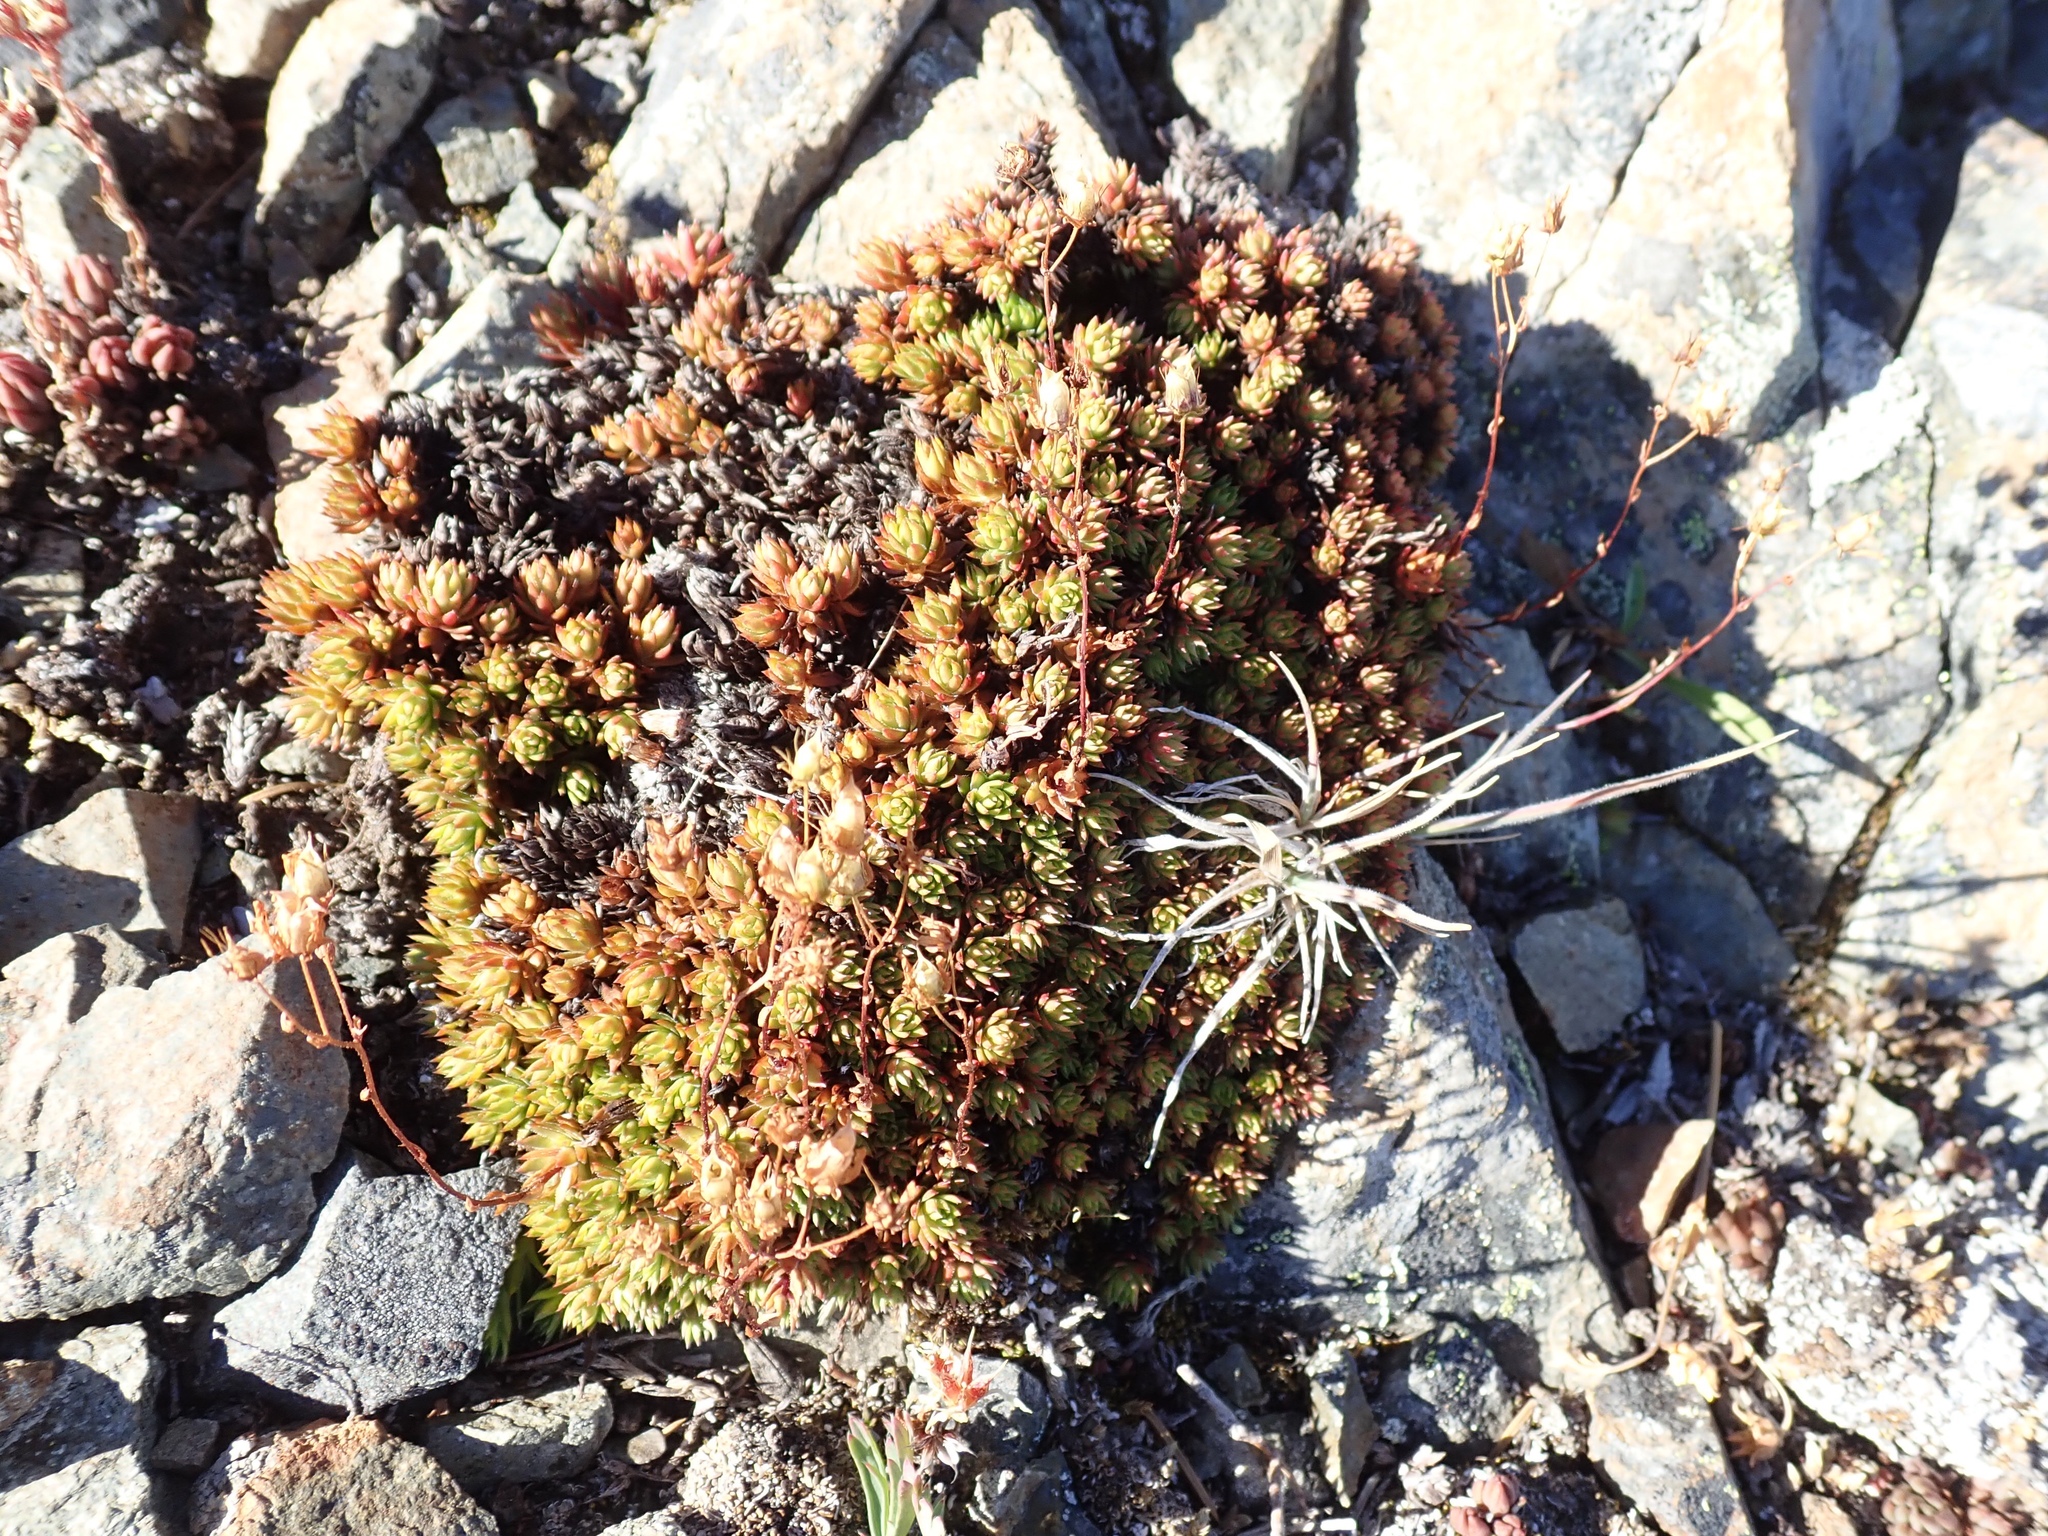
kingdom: Plantae
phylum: Tracheophyta
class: Magnoliopsida
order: Saxifragales
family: Saxifragaceae
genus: Saxifraga
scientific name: Saxifraga bronchialis
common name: Matted saxifrage
